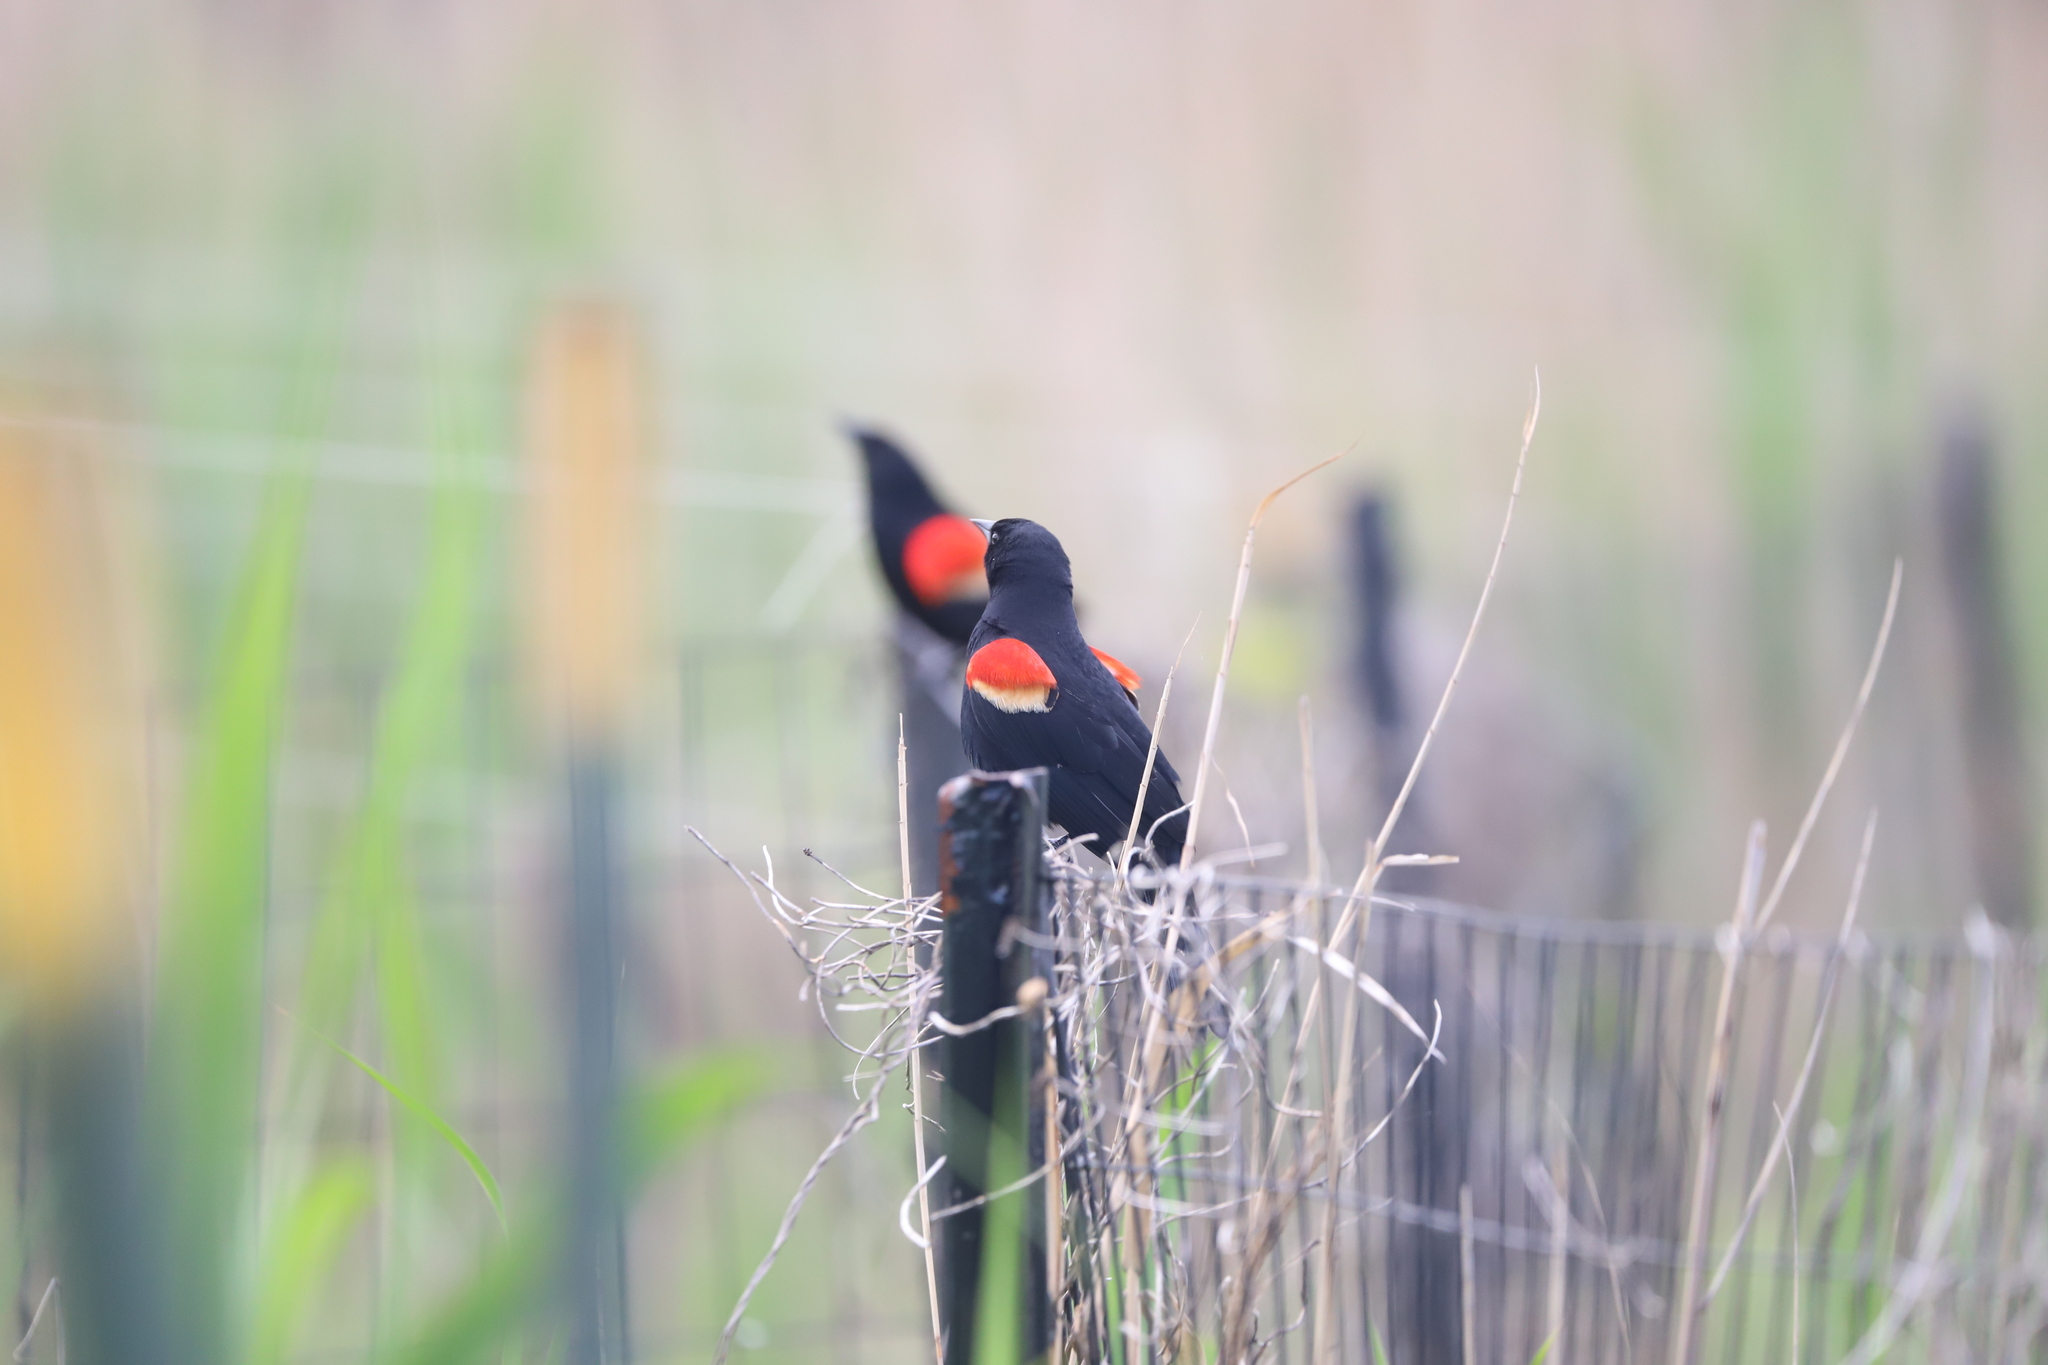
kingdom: Animalia
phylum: Chordata
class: Aves
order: Passeriformes
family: Icteridae
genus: Agelaius
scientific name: Agelaius phoeniceus
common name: Red-winged blackbird
